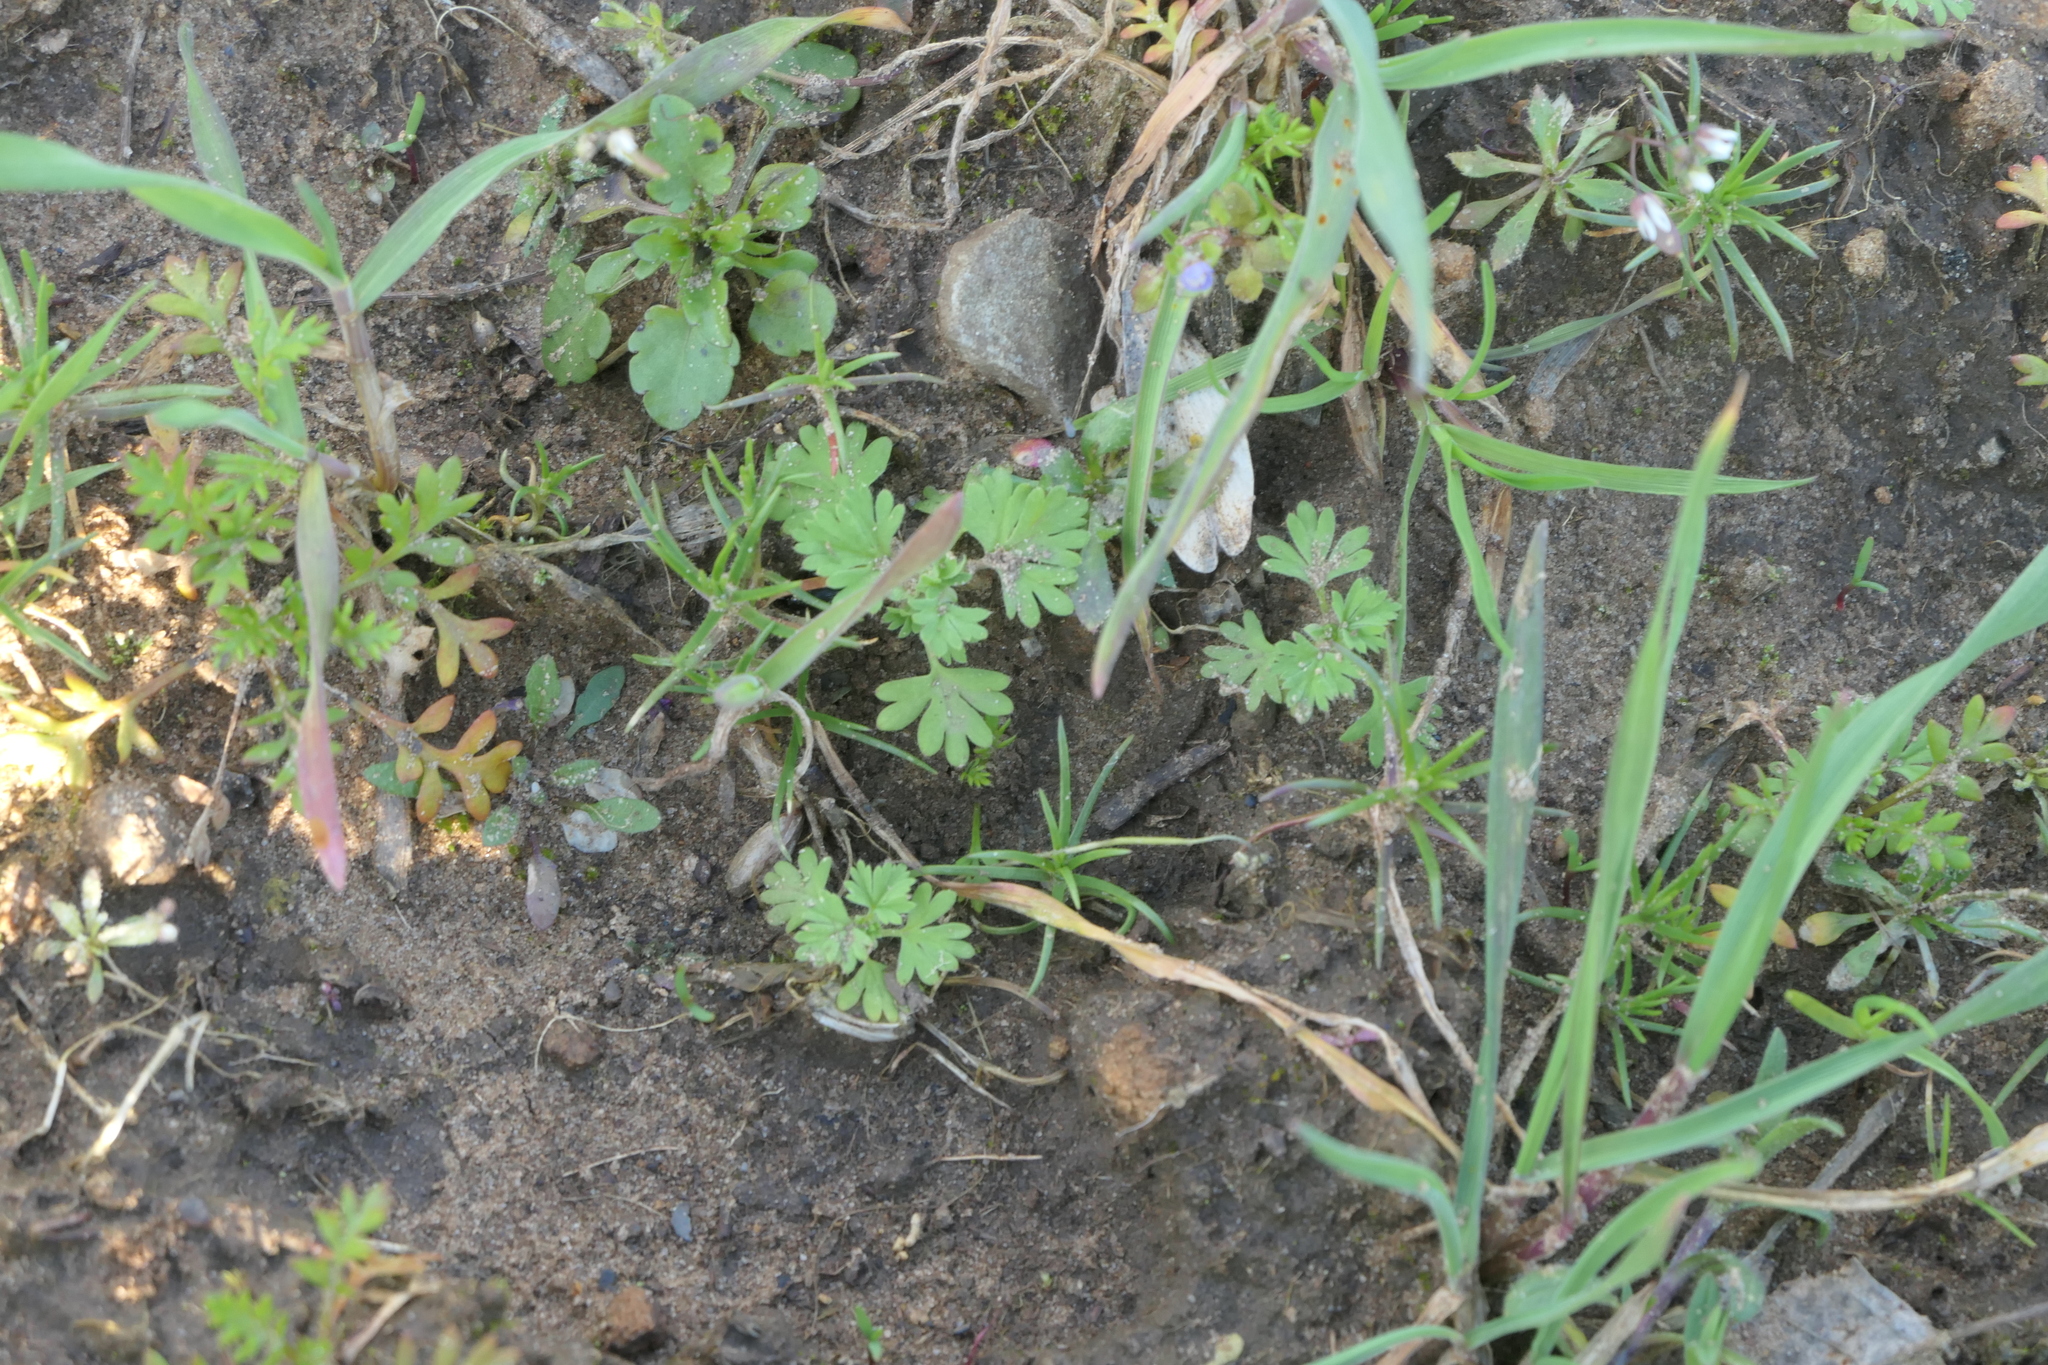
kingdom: Plantae
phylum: Tracheophyta
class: Magnoliopsida
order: Rosales
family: Rosaceae
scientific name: Rosaceae
